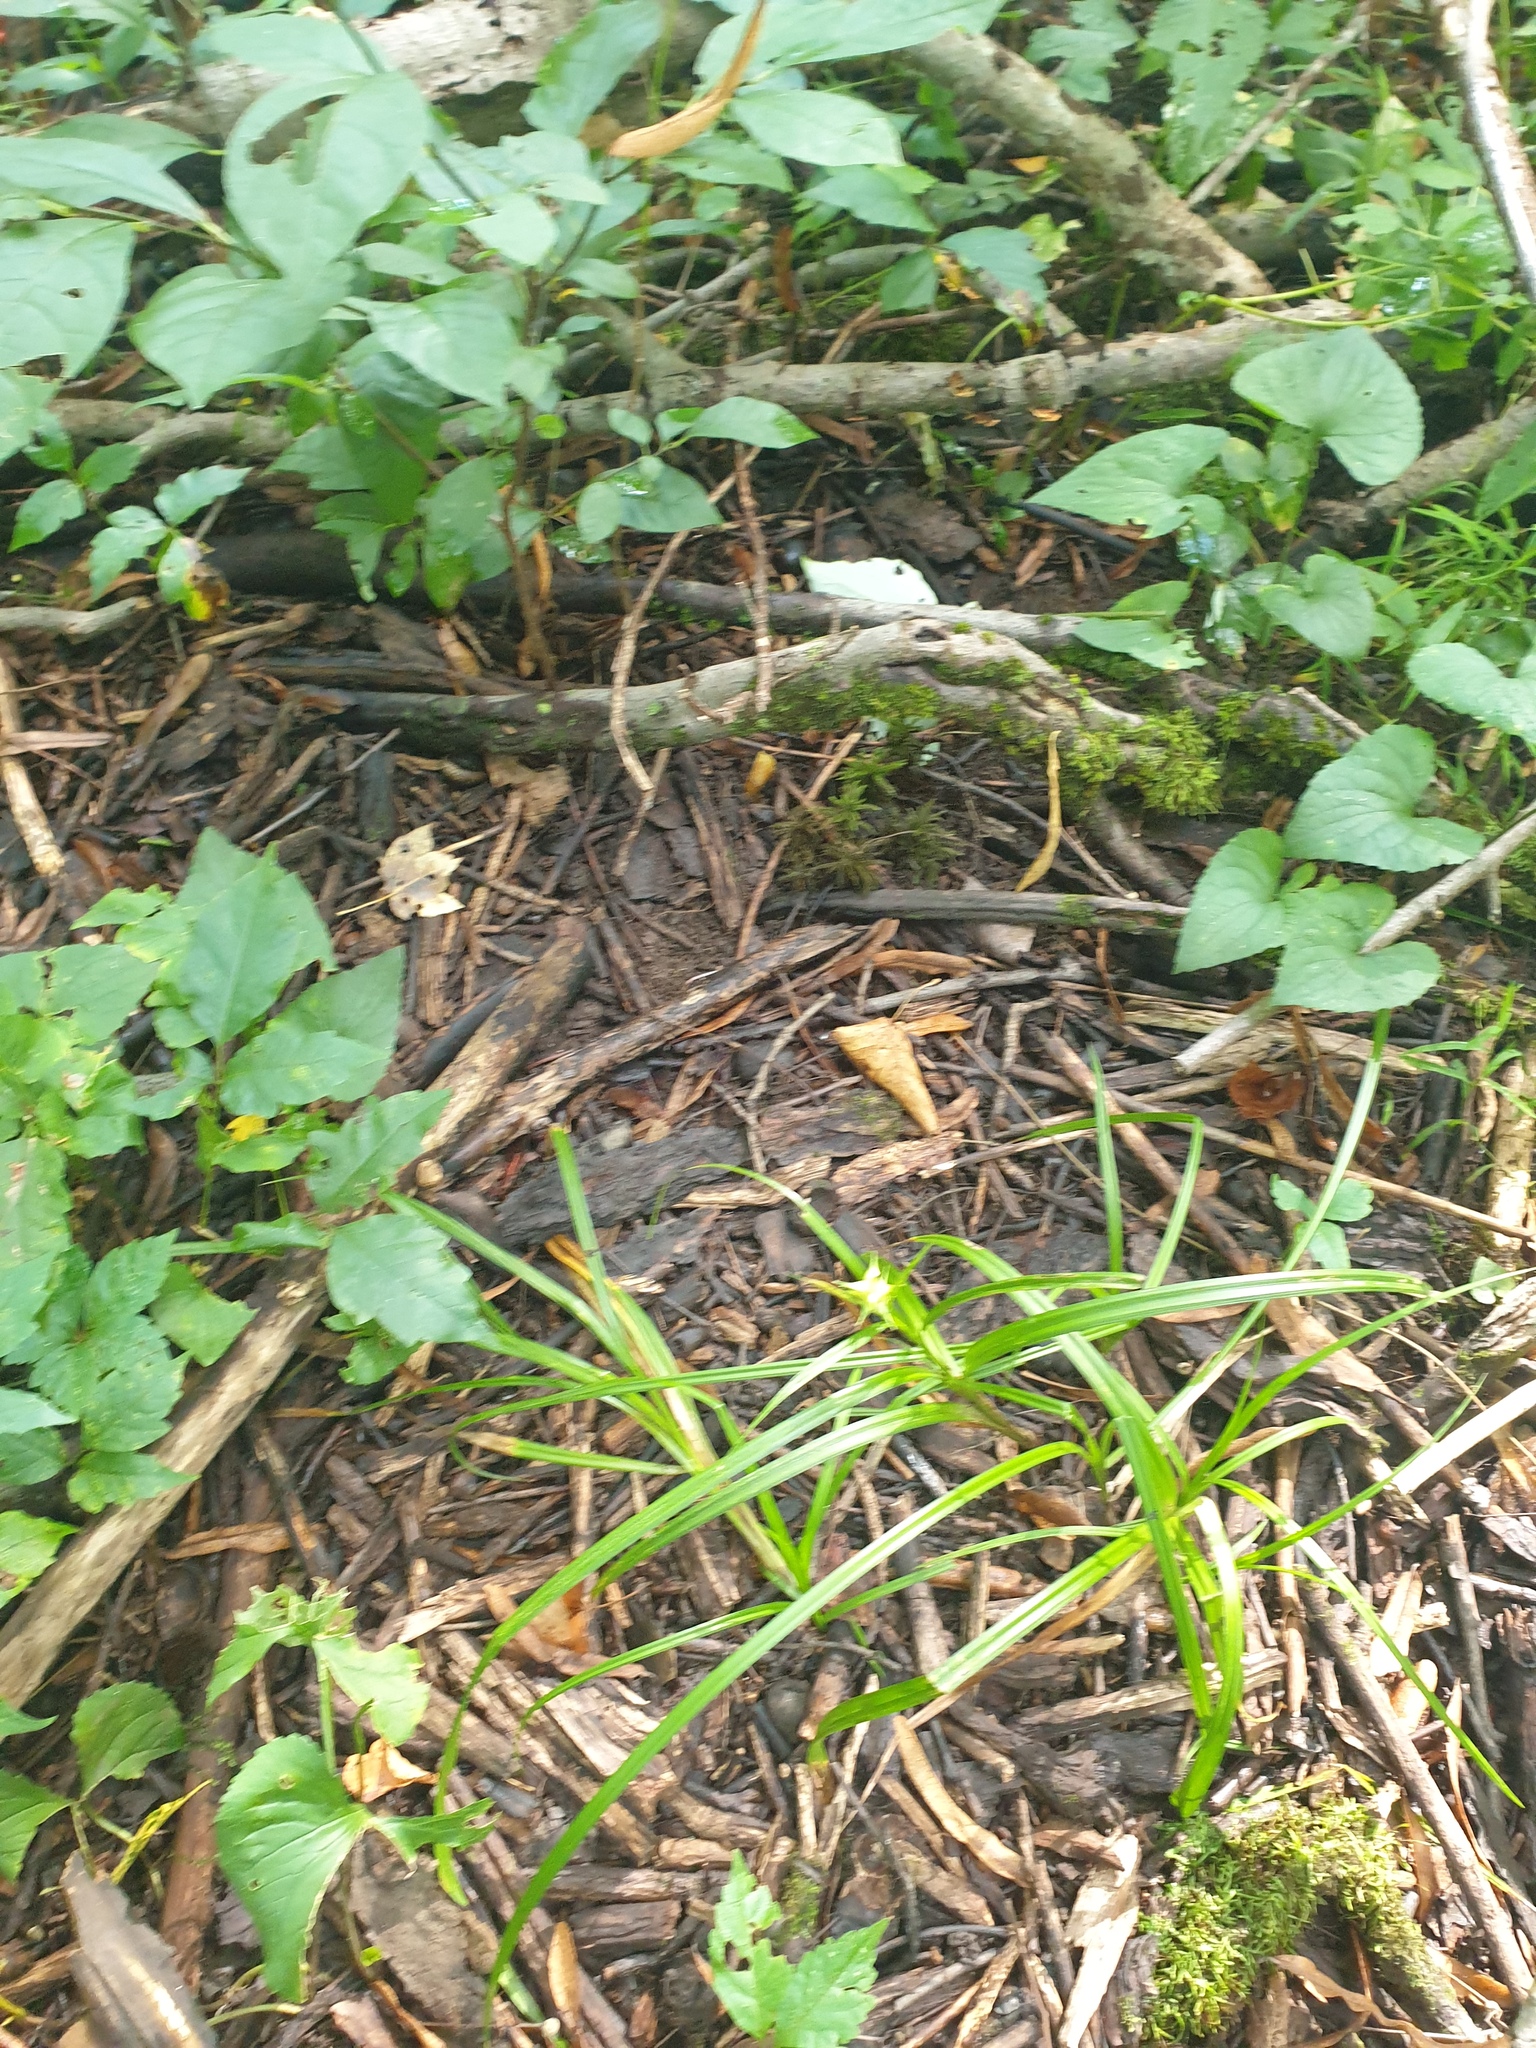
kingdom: Plantae
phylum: Tracheophyta
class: Liliopsida
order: Poales
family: Cyperaceae
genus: Carex
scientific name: Carex lupuliformis
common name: False hop sedge
